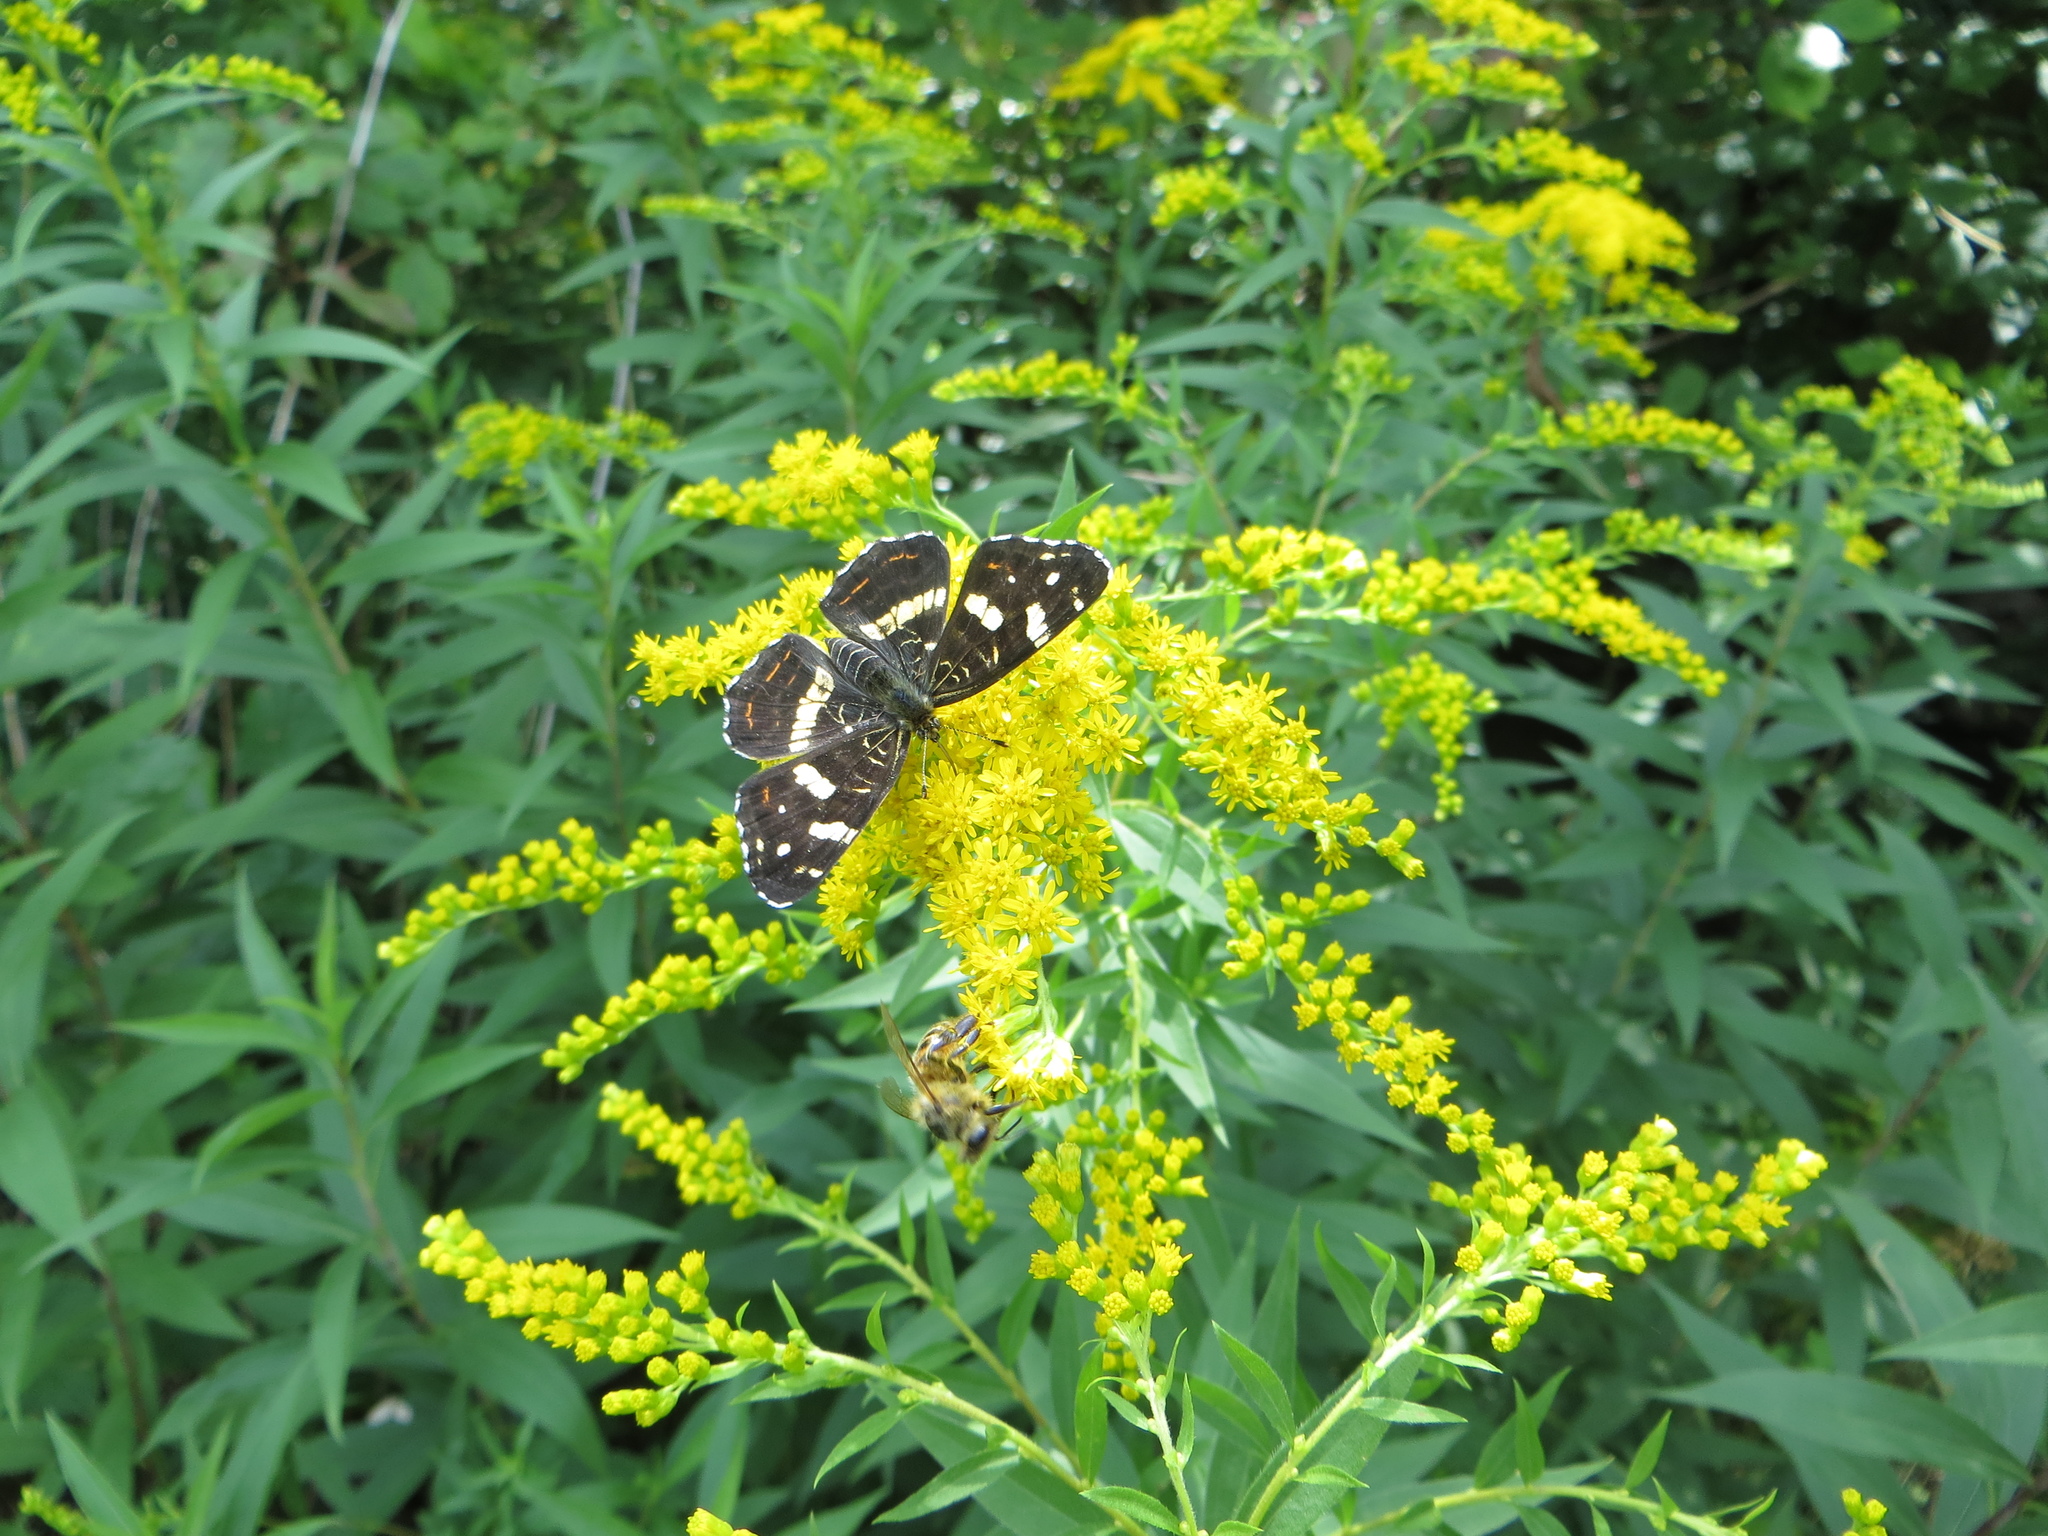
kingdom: Animalia
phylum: Arthropoda
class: Insecta
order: Lepidoptera
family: Nymphalidae
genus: Araschnia
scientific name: Araschnia levana
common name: Map butterfly
